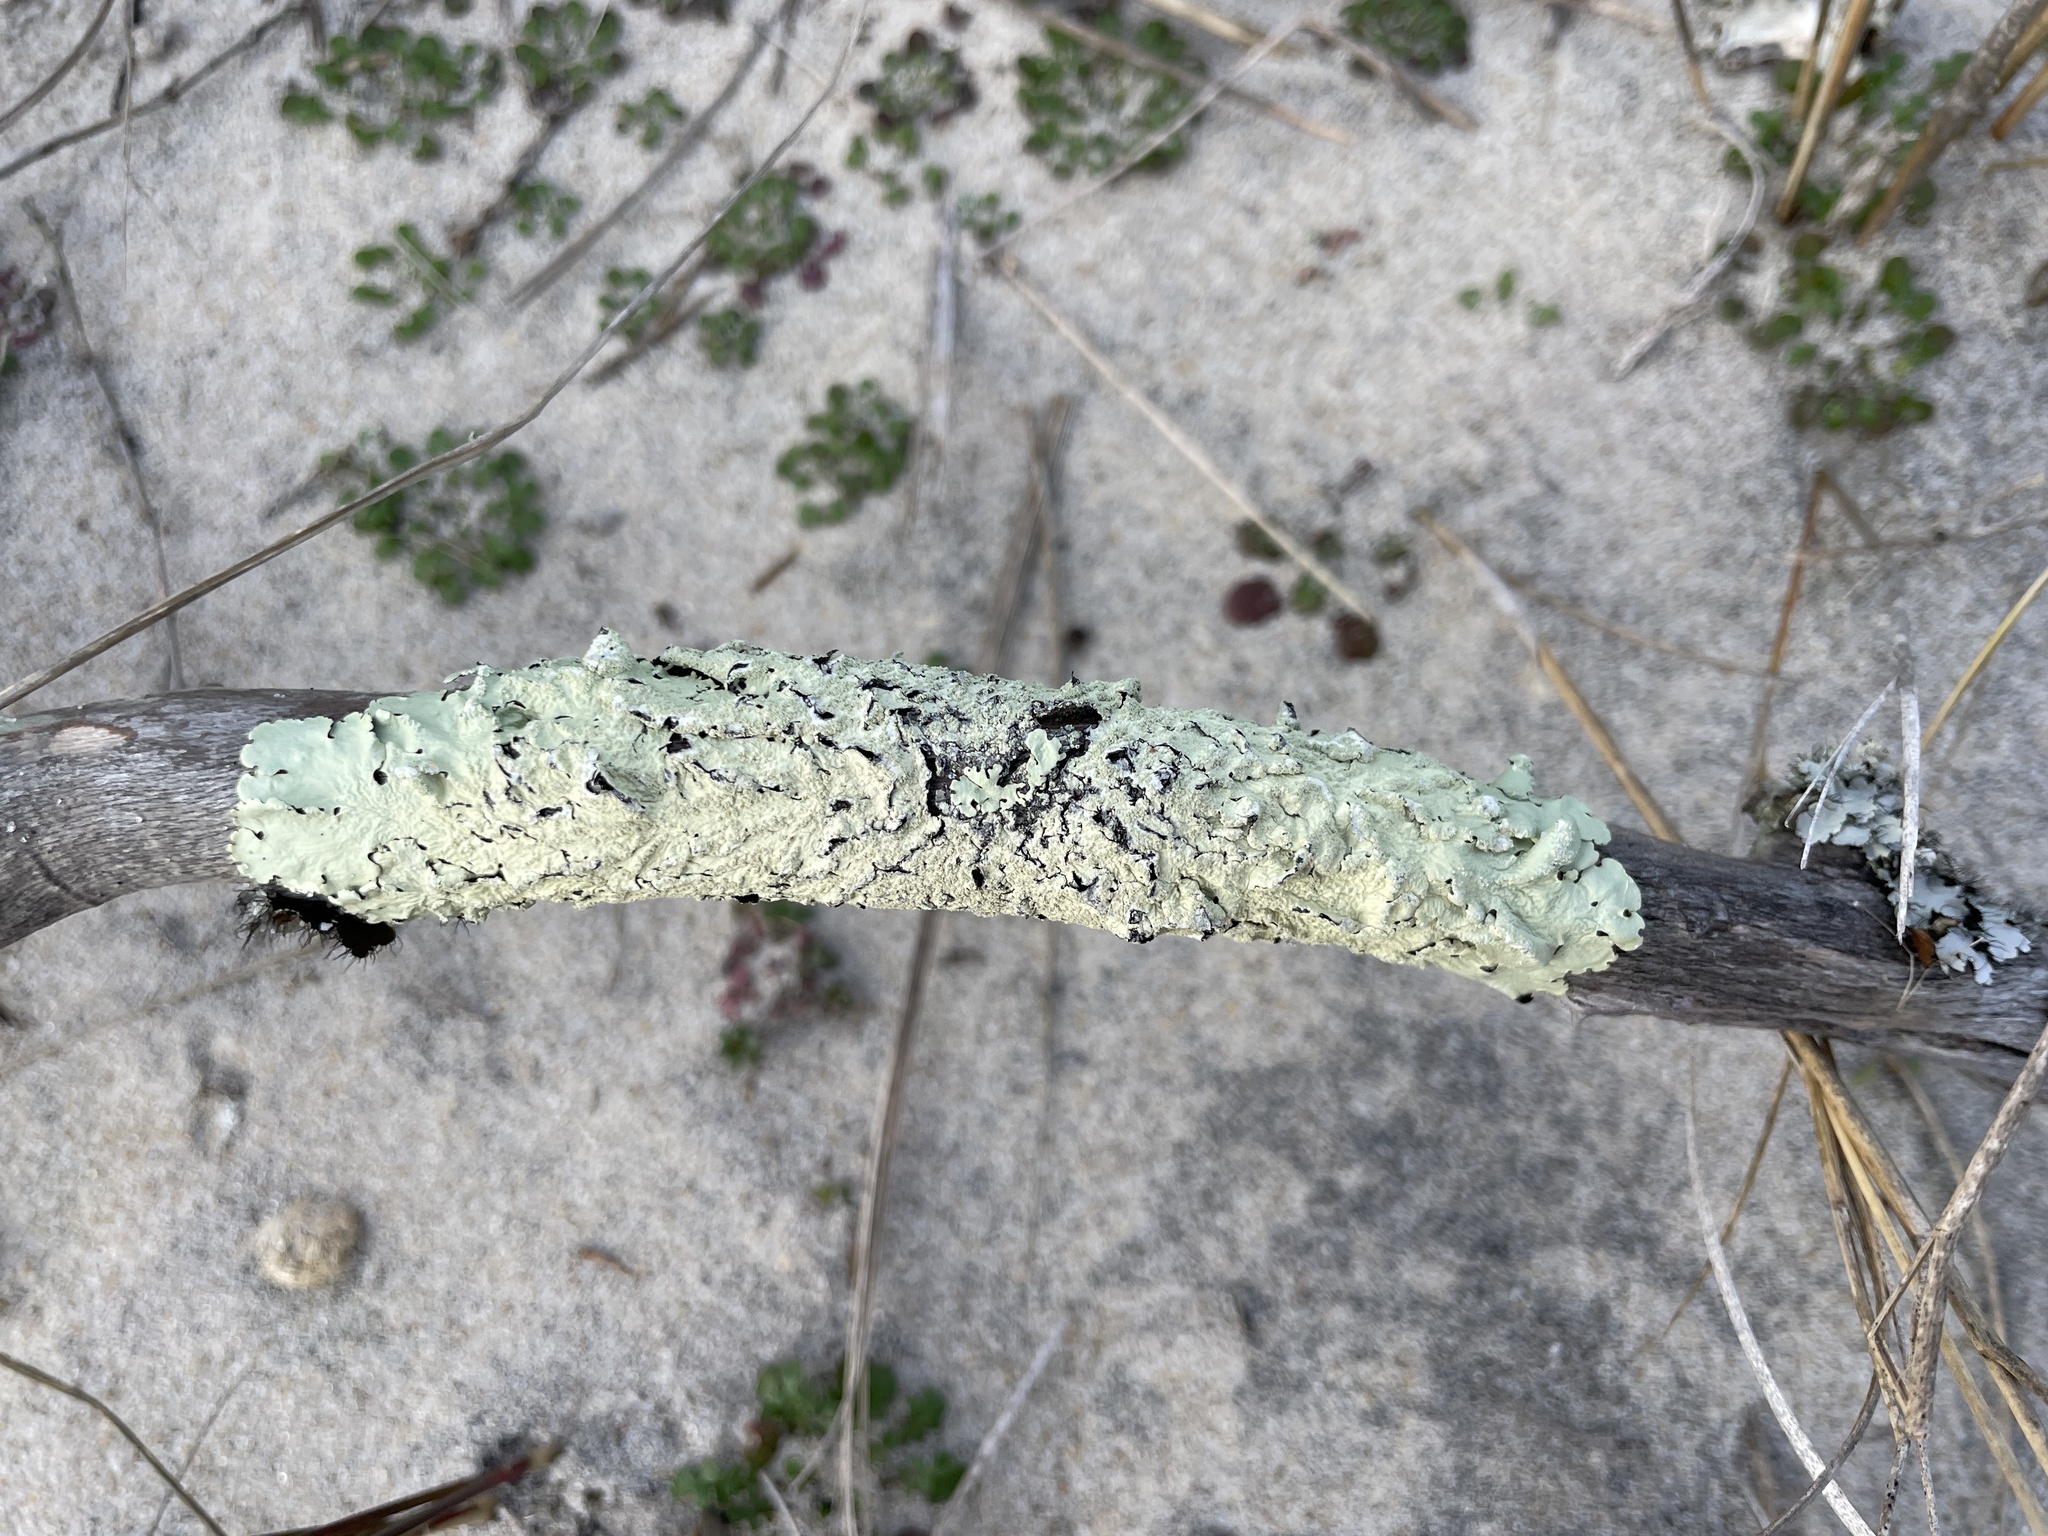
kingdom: Fungi
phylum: Ascomycota
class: Lecanoromycetes
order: Lecanorales
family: Parmeliaceae
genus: Flavoparmelia
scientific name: Flavoparmelia caperata
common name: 40-mile per hour lichen
